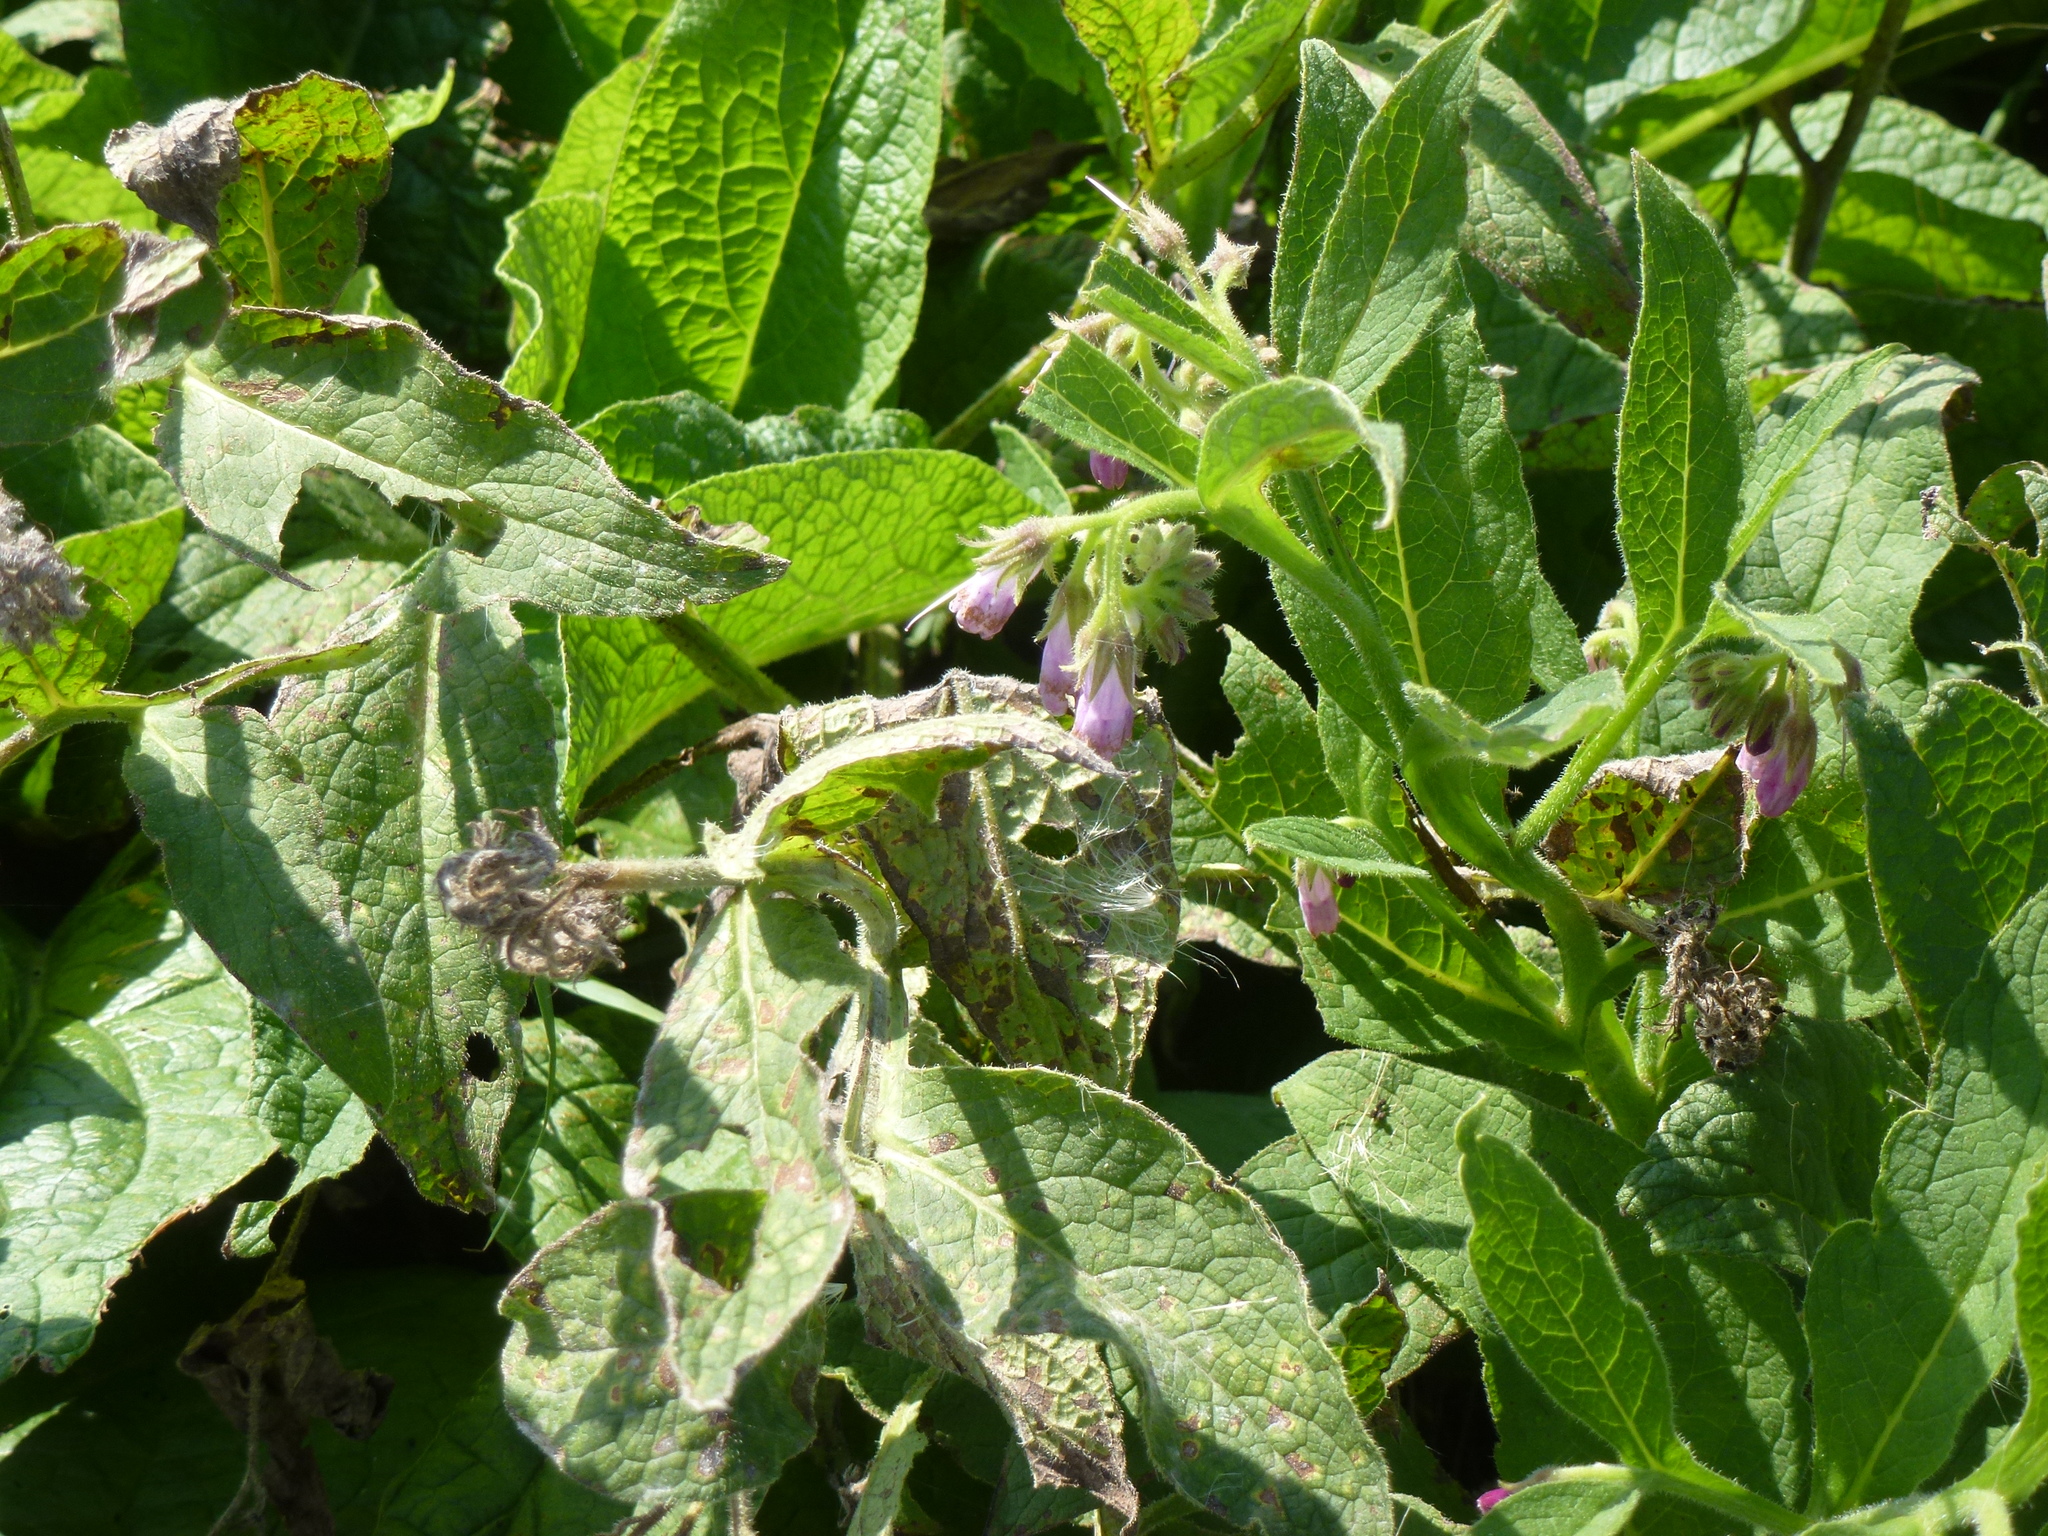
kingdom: Plantae
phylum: Tracheophyta
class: Magnoliopsida
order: Boraginales
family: Boraginaceae
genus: Symphytum
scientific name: Symphytum officinale
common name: Common comfrey
